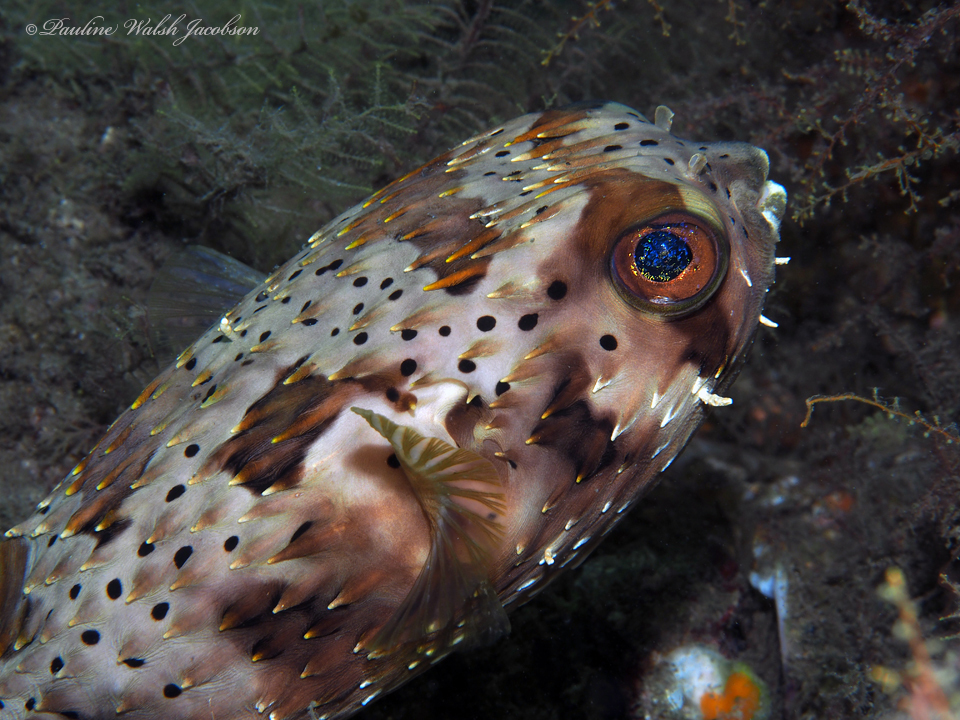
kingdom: Animalia
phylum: Chordata
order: Tetraodontiformes
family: Diodontidae
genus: Diodon
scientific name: Diodon holocanthus
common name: Balloonfish
